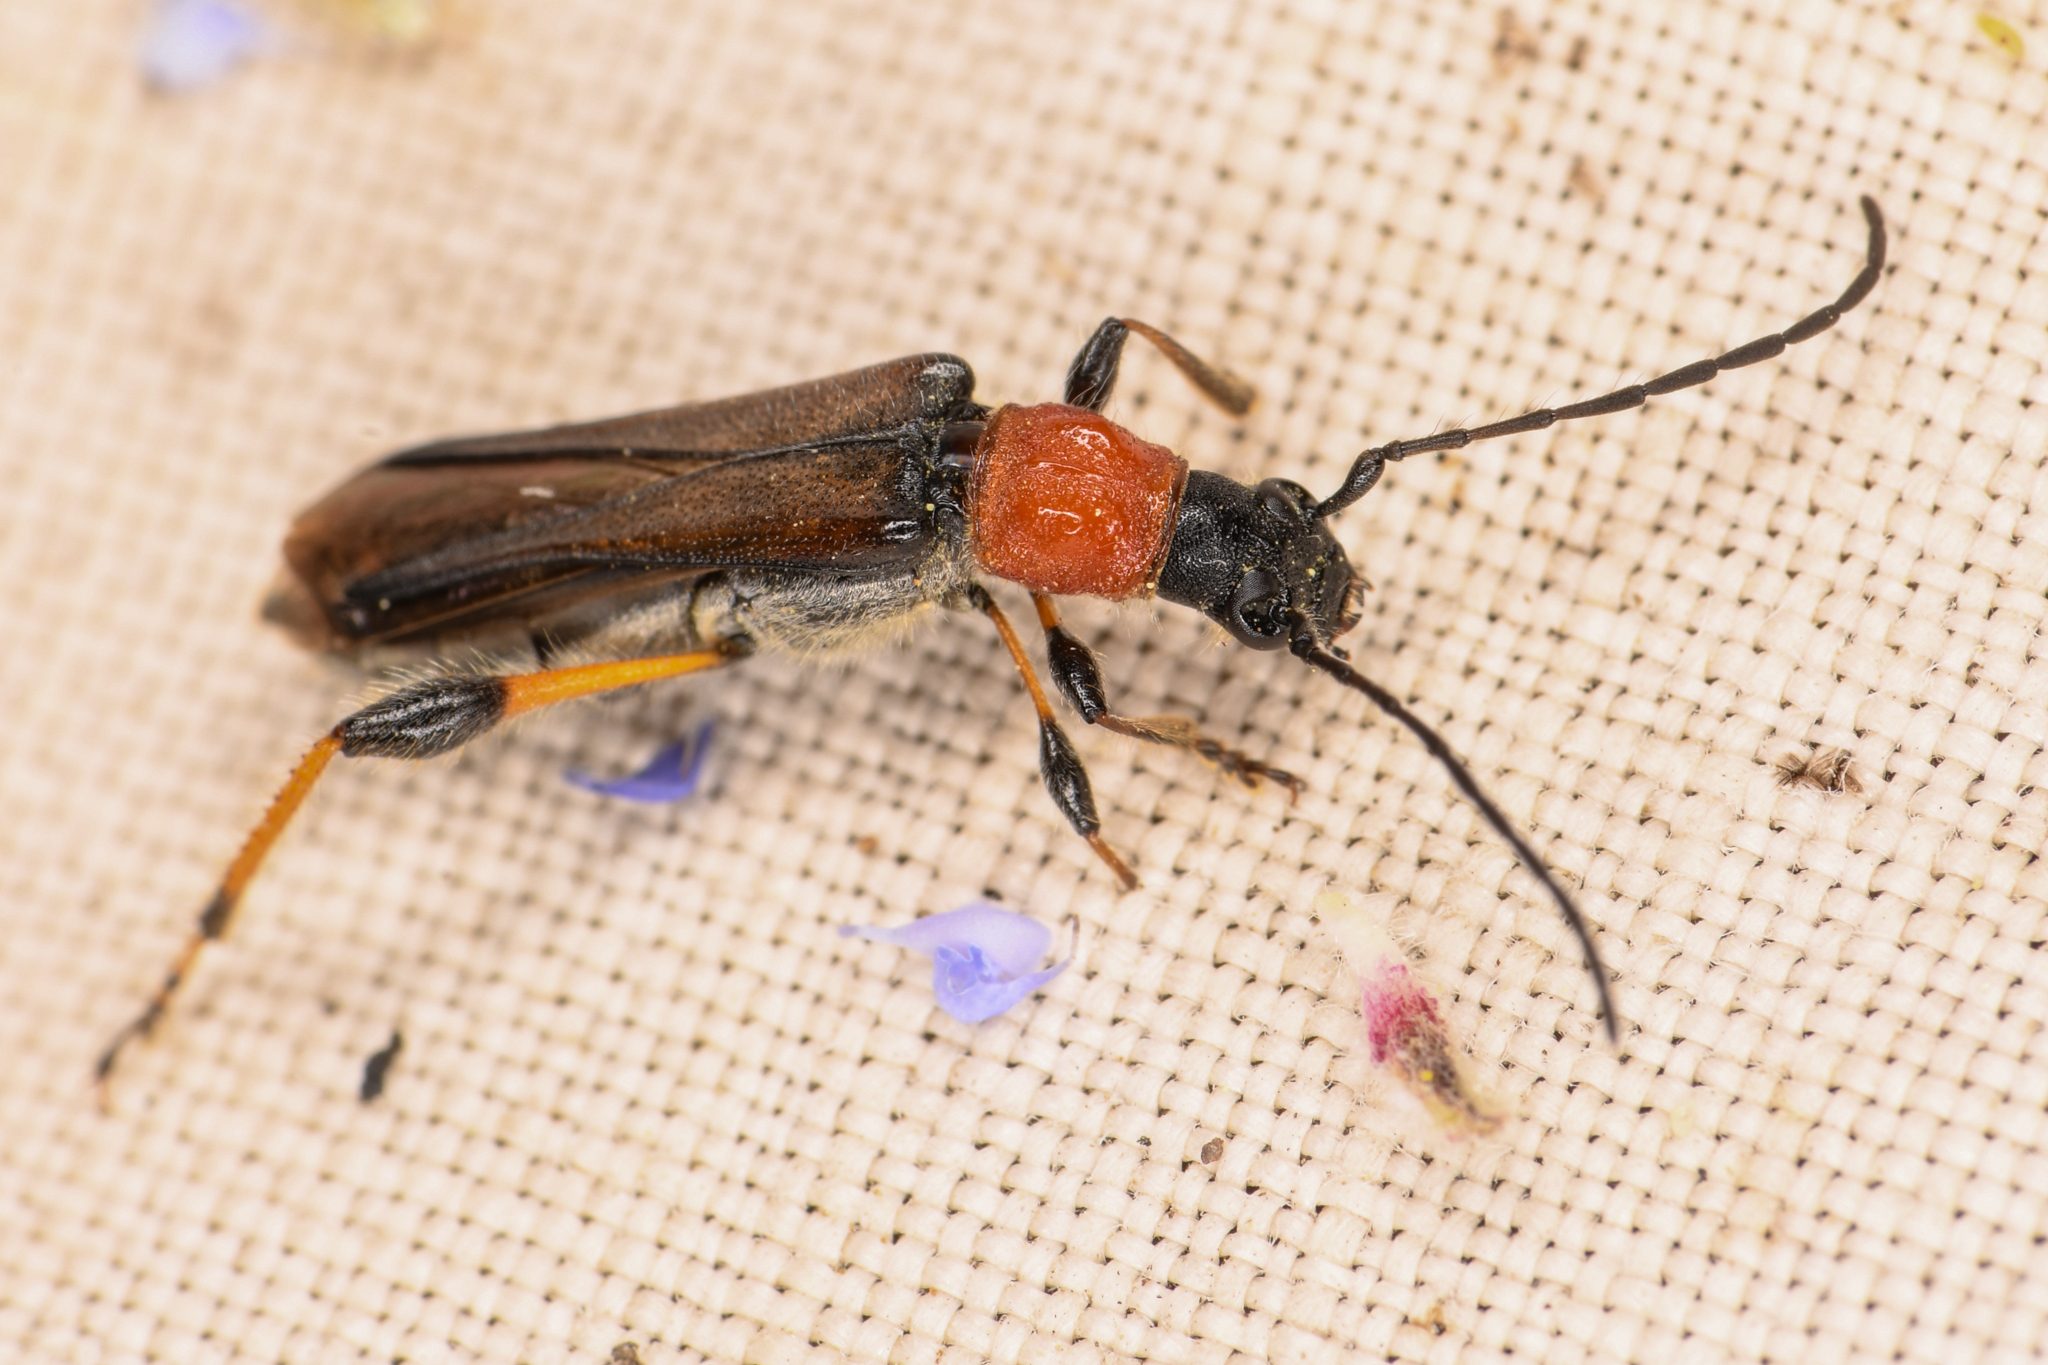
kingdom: Animalia
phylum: Arthropoda
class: Insecta
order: Coleoptera
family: Cerambycidae
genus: Callimoxys
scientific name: Callimoxys fuscipennis
